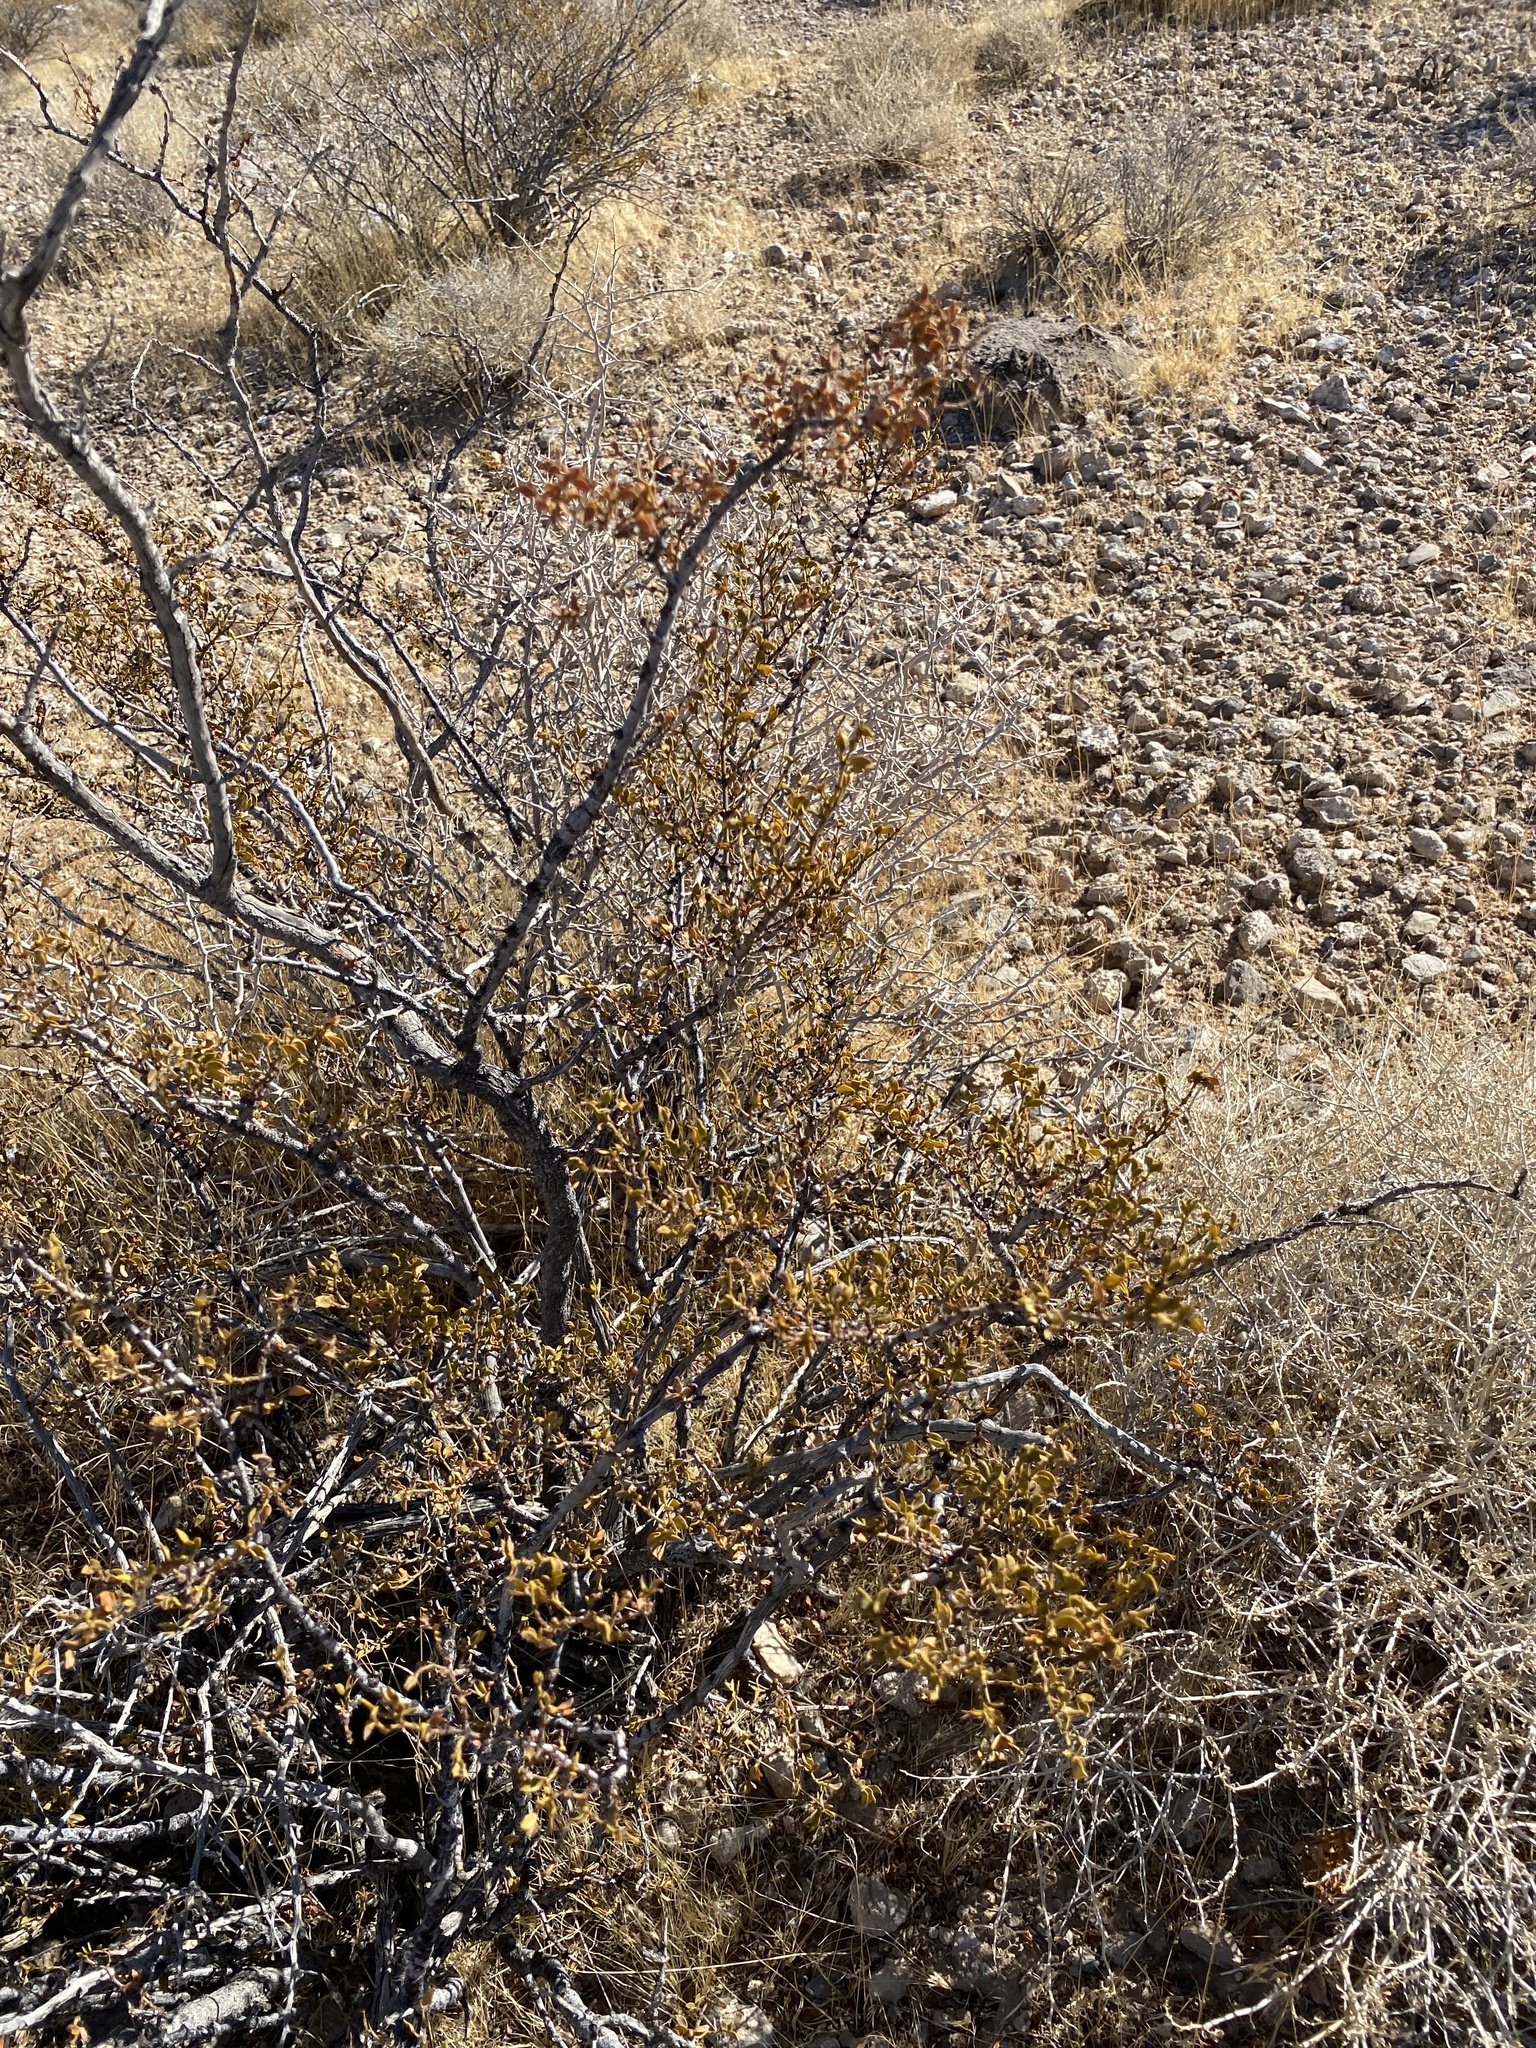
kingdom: Plantae
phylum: Tracheophyta
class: Magnoliopsida
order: Zygophyllales
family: Zygophyllaceae
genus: Larrea
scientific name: Larrea tridentata
